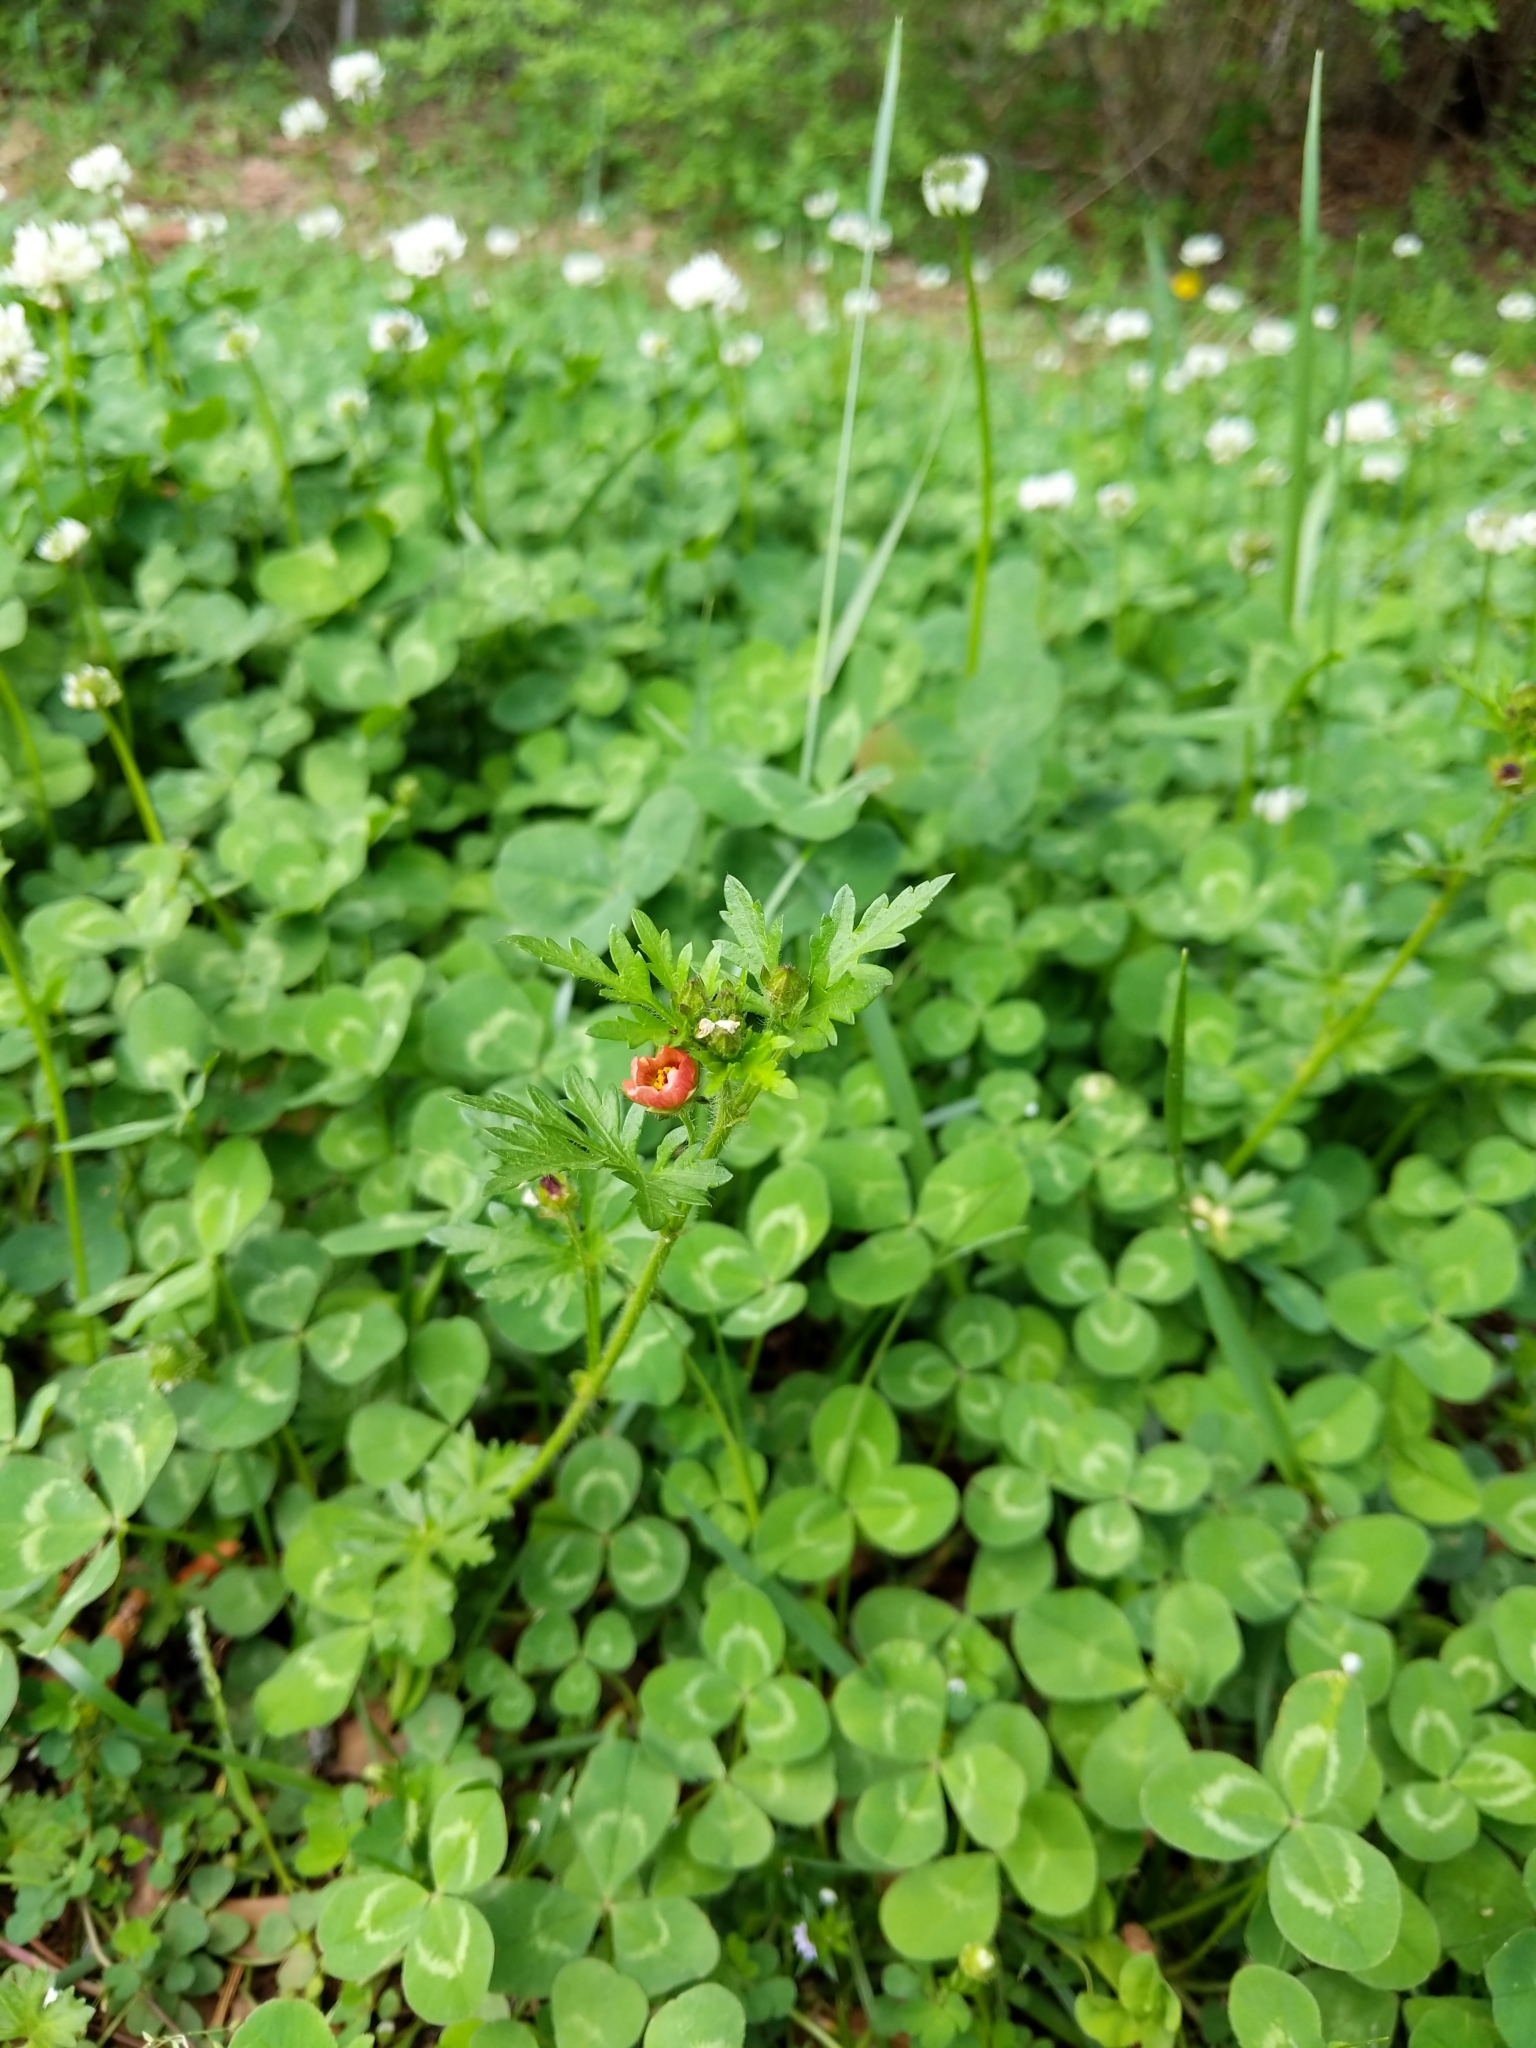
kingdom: Plantae
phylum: Tracheophyta
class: Magnoliopsida
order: Malvales
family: Malvaceae
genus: Modiola
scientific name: Modiola caroliniana
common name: Carolina bristlemallow
